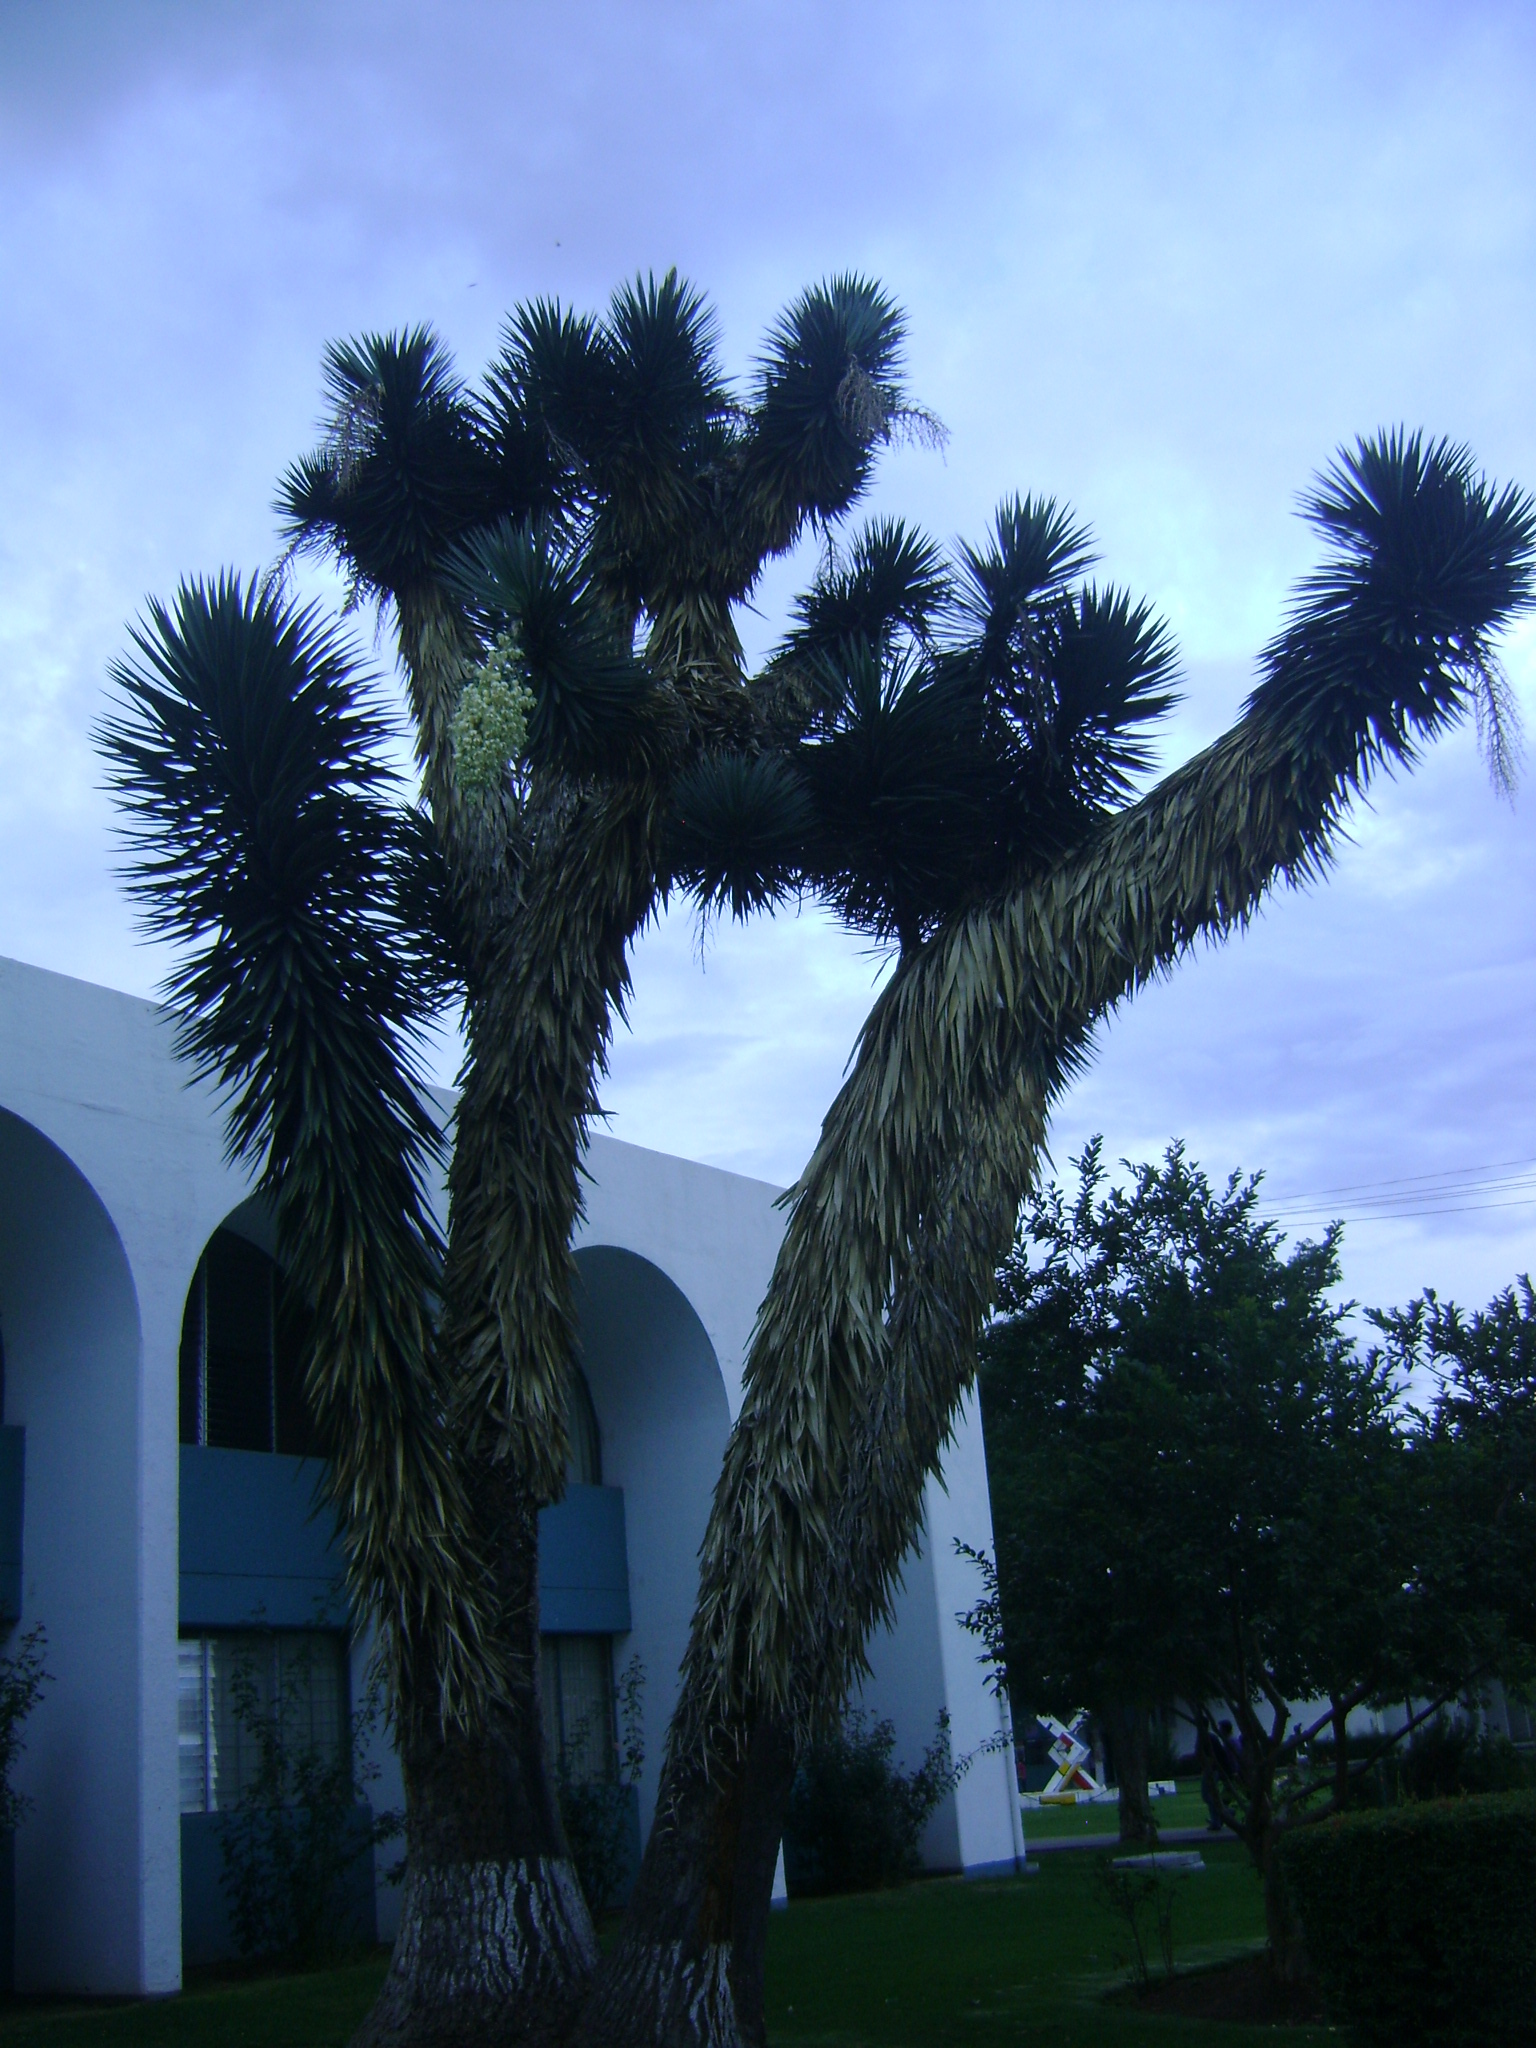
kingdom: Plantae
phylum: Tracheophyta
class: Liliopsida
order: Asparagales
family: Asparagaceae
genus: Yucca
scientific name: Yucca filifera
